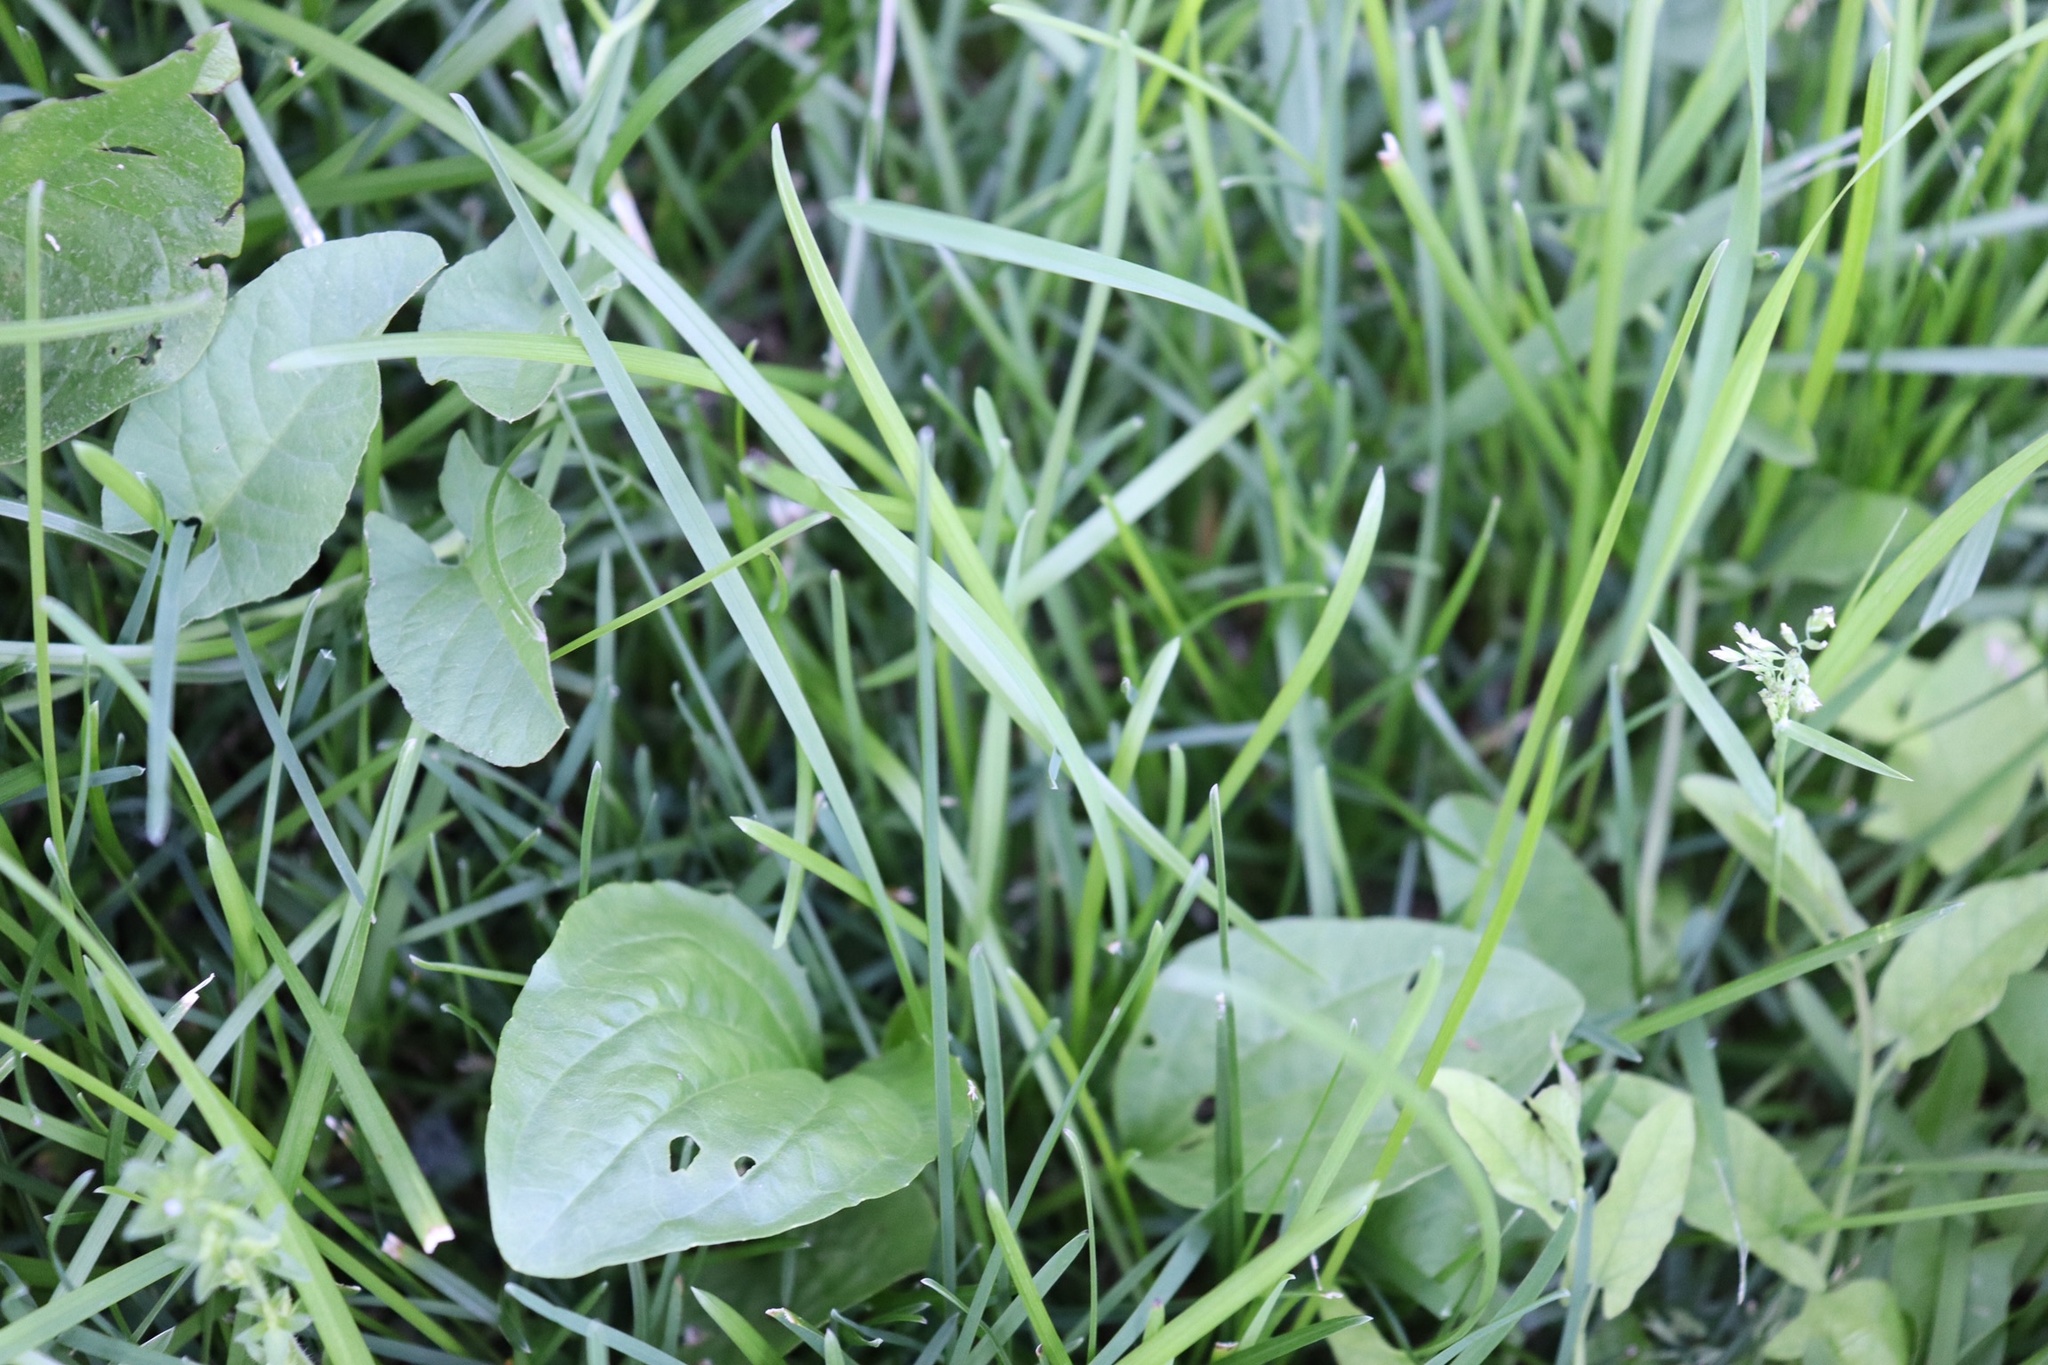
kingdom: Plantae
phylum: Tracheophyta
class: Magnoliopsida
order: Lamiales
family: Plantaginaceae
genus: Plantago
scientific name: Plantago major
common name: Common plantain
